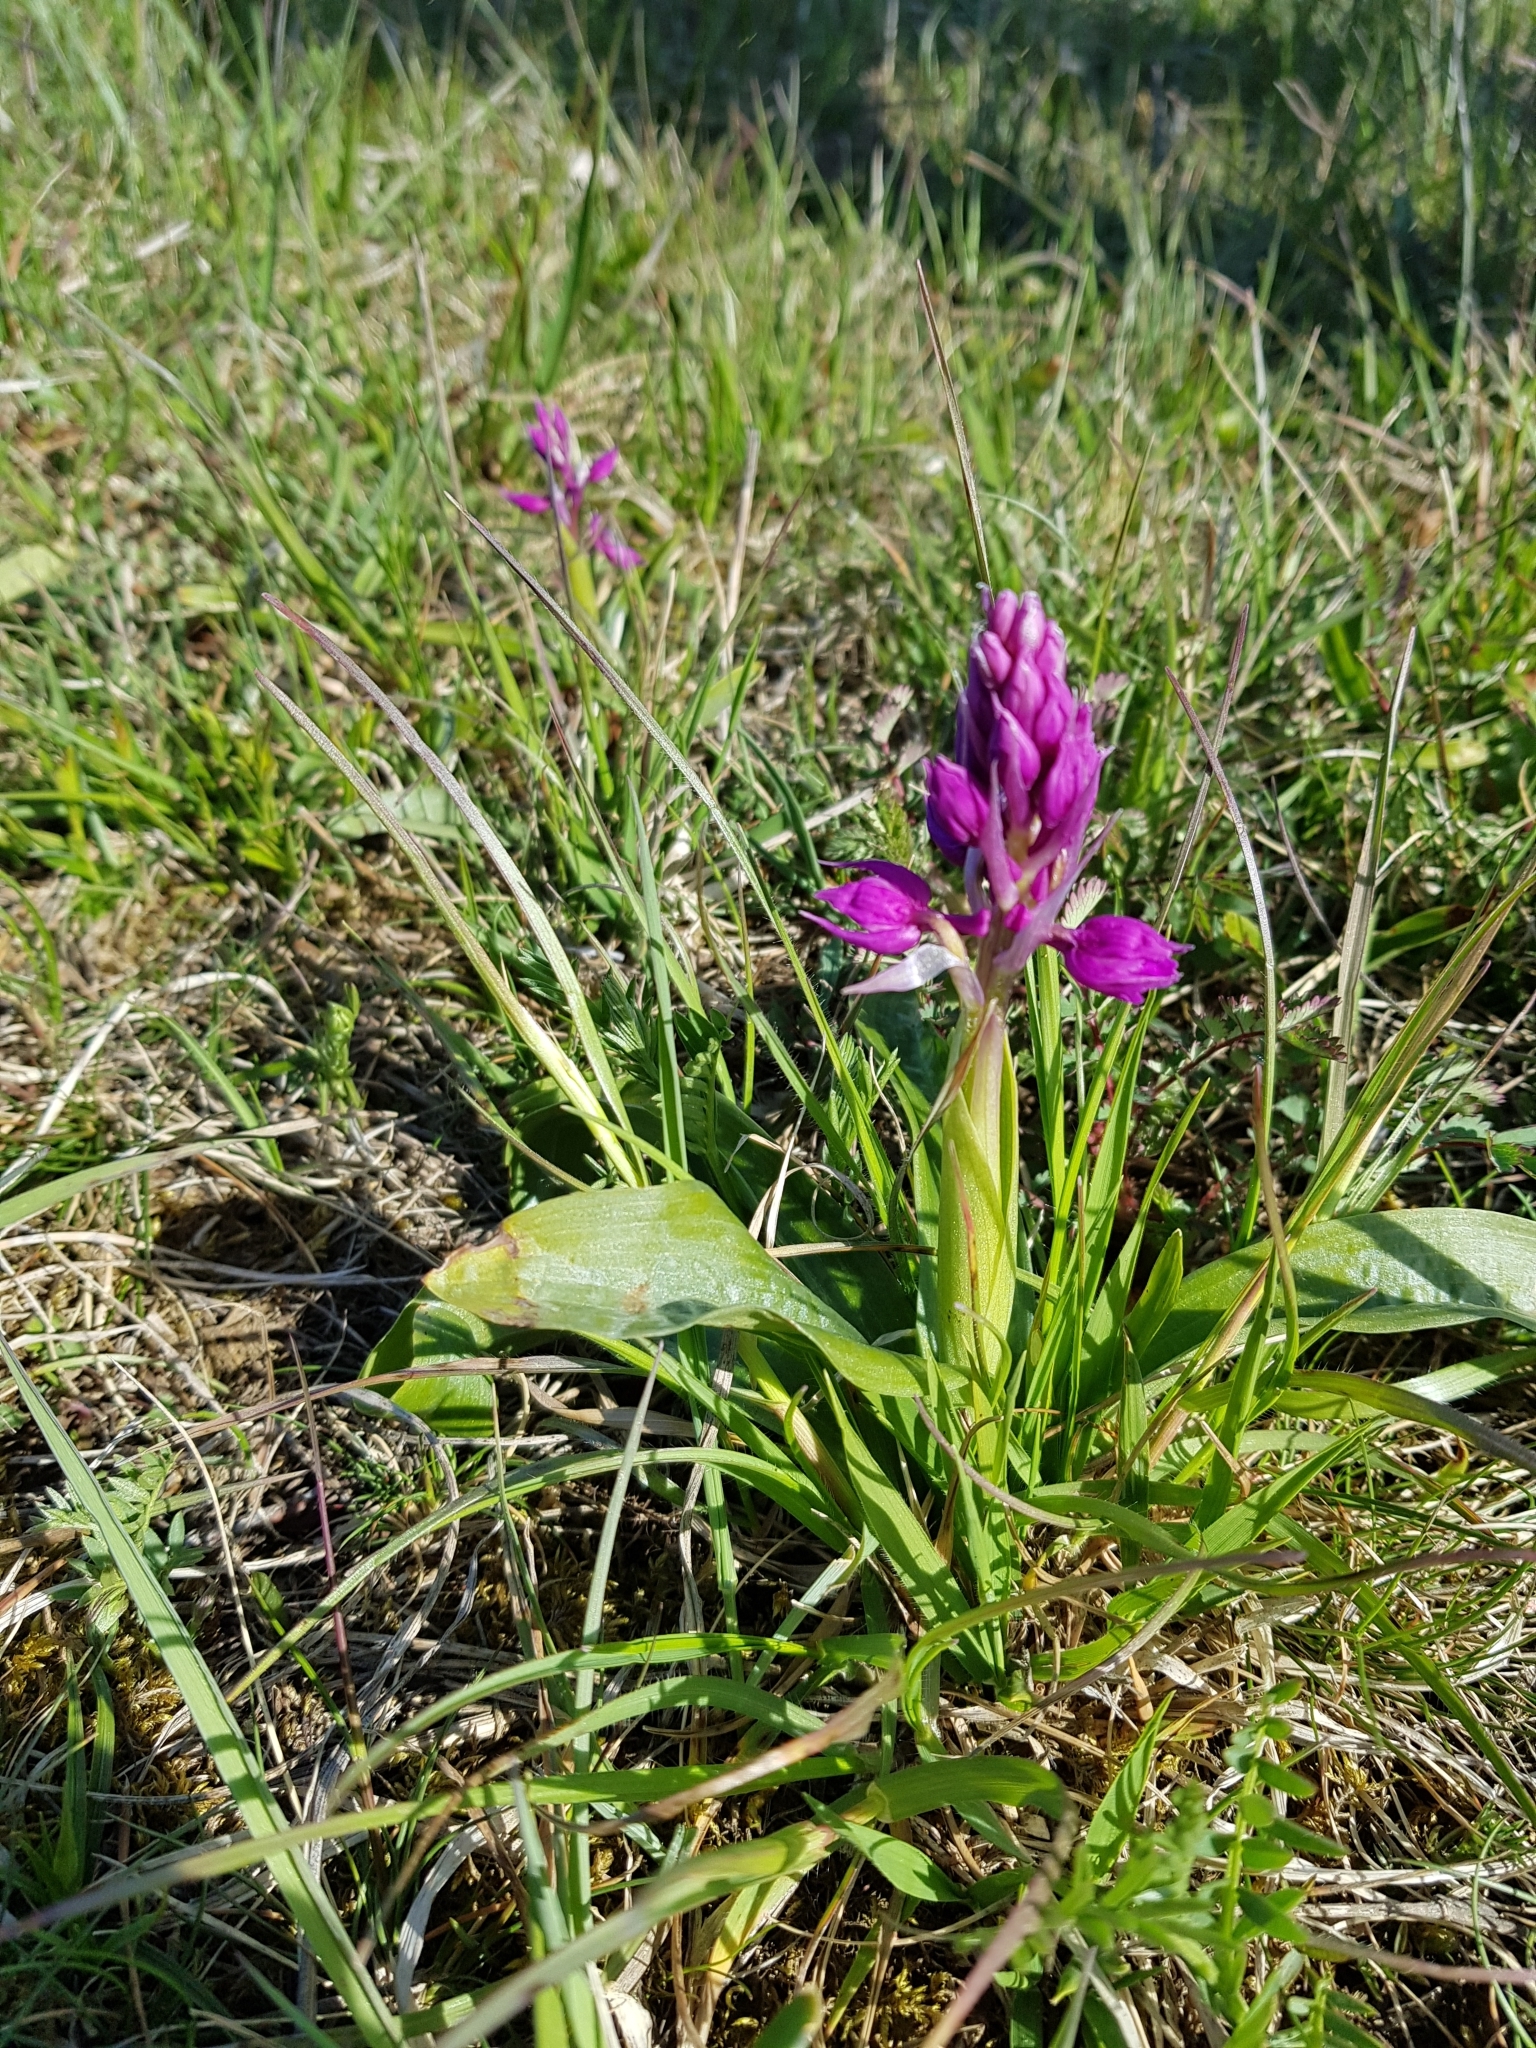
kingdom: Plantae
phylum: Tracheophyta
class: Liliopsida
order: Asparagales
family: Orchidaceae
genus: Orchis
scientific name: Orchis mascula
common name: Early-purple orchid
